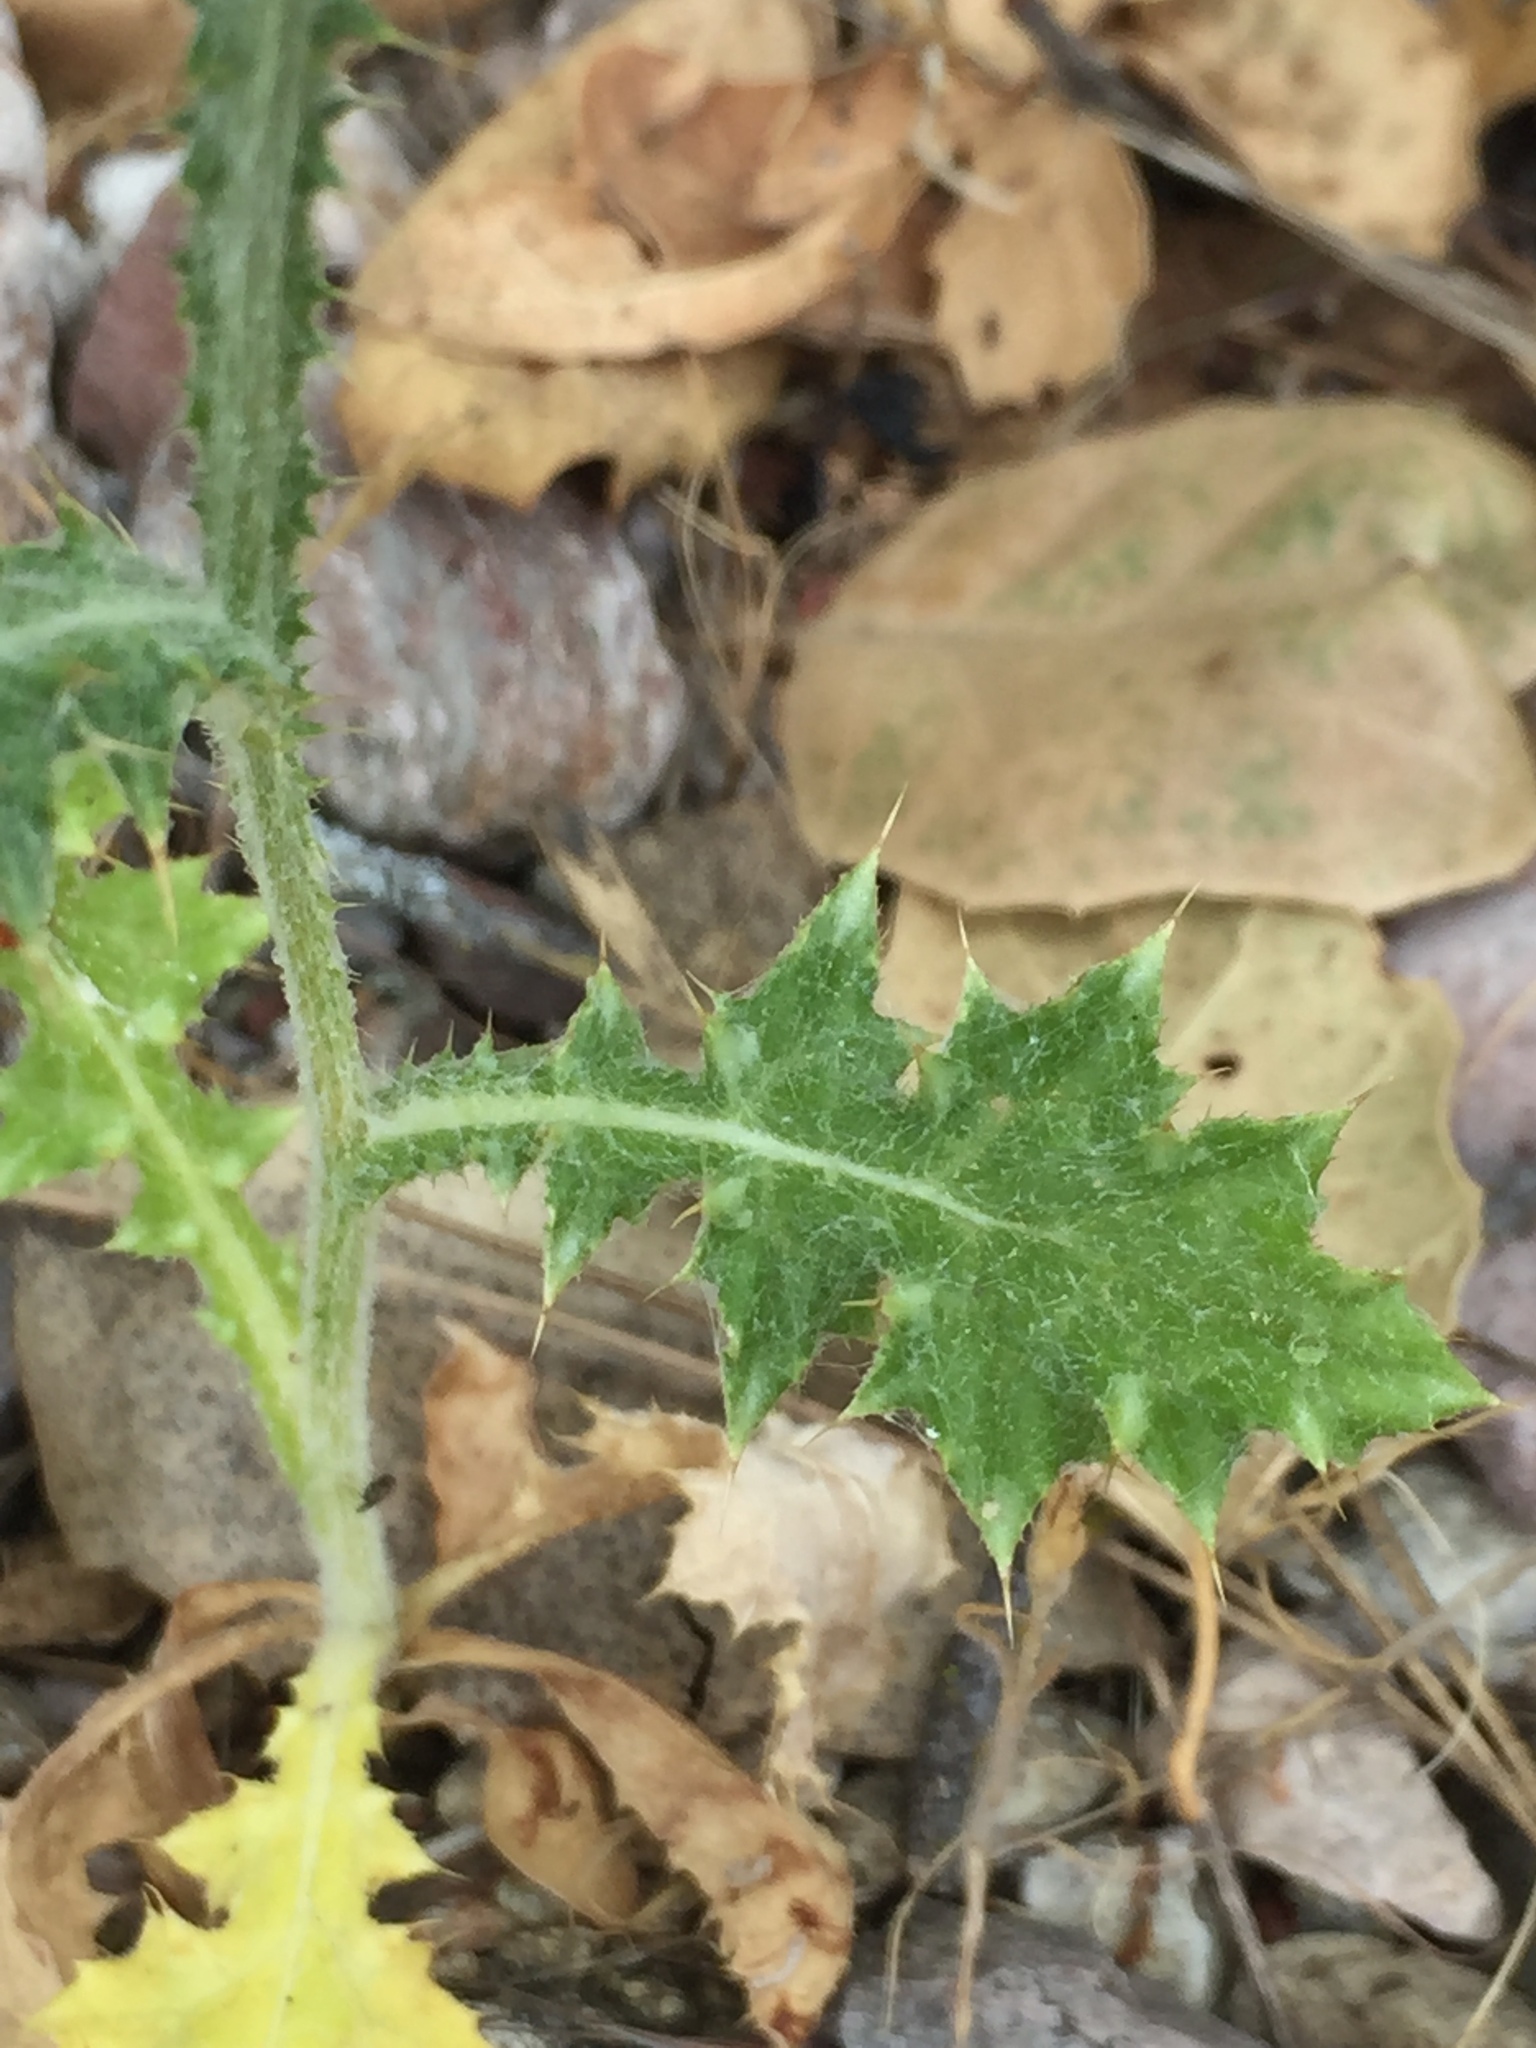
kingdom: Plantae
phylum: Tracheophyta
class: Magnoliopsida
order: Asterales
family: Asteraceae
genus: Carduus
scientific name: Carduus pycnocephalus
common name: Plymouth thistle
